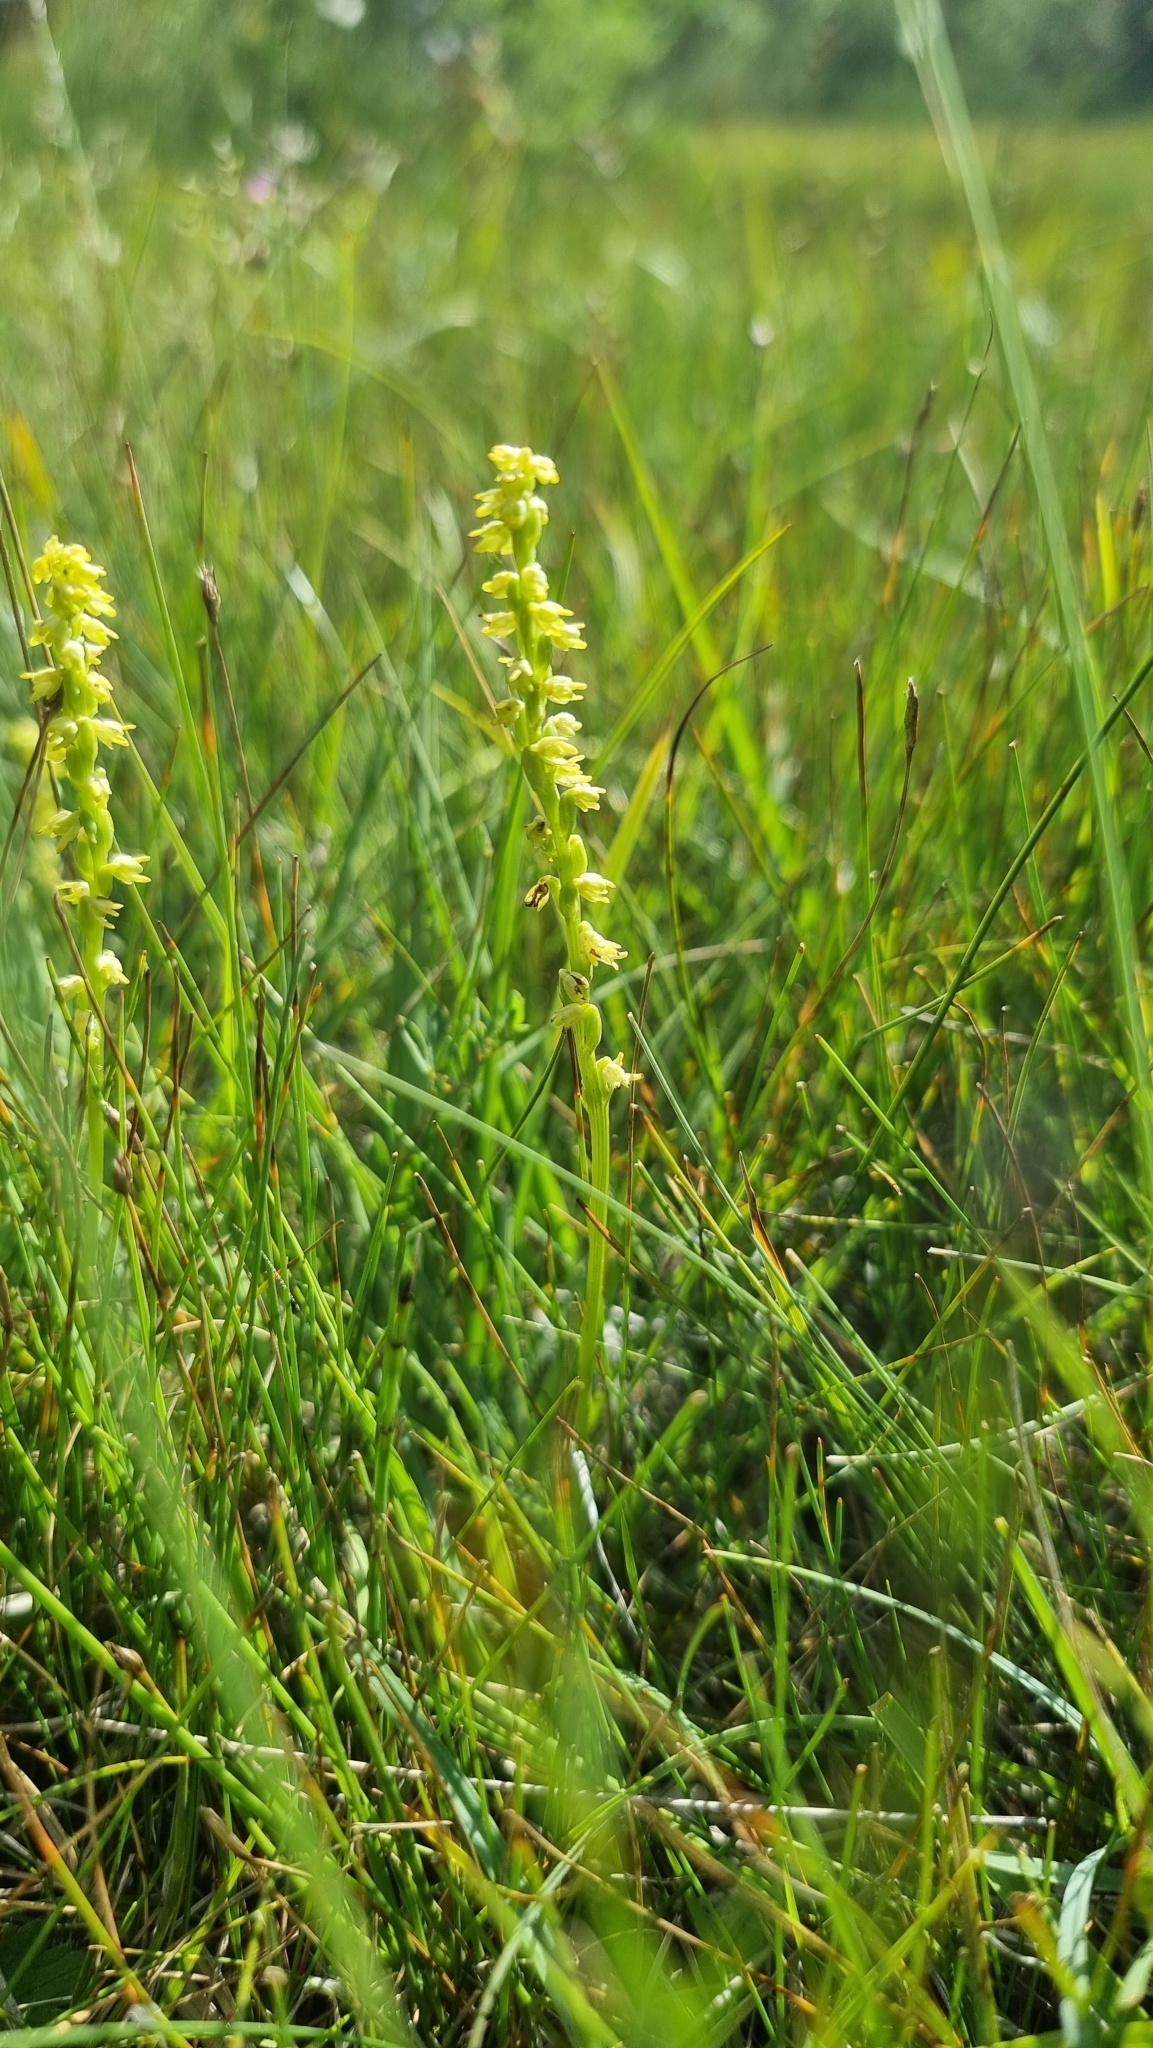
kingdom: Plantae
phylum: Tracheophyta
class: Liliopsida
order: Asparagales
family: Orchidaceae
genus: Herminium
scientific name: Herminium monorchis
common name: Musk orchid
